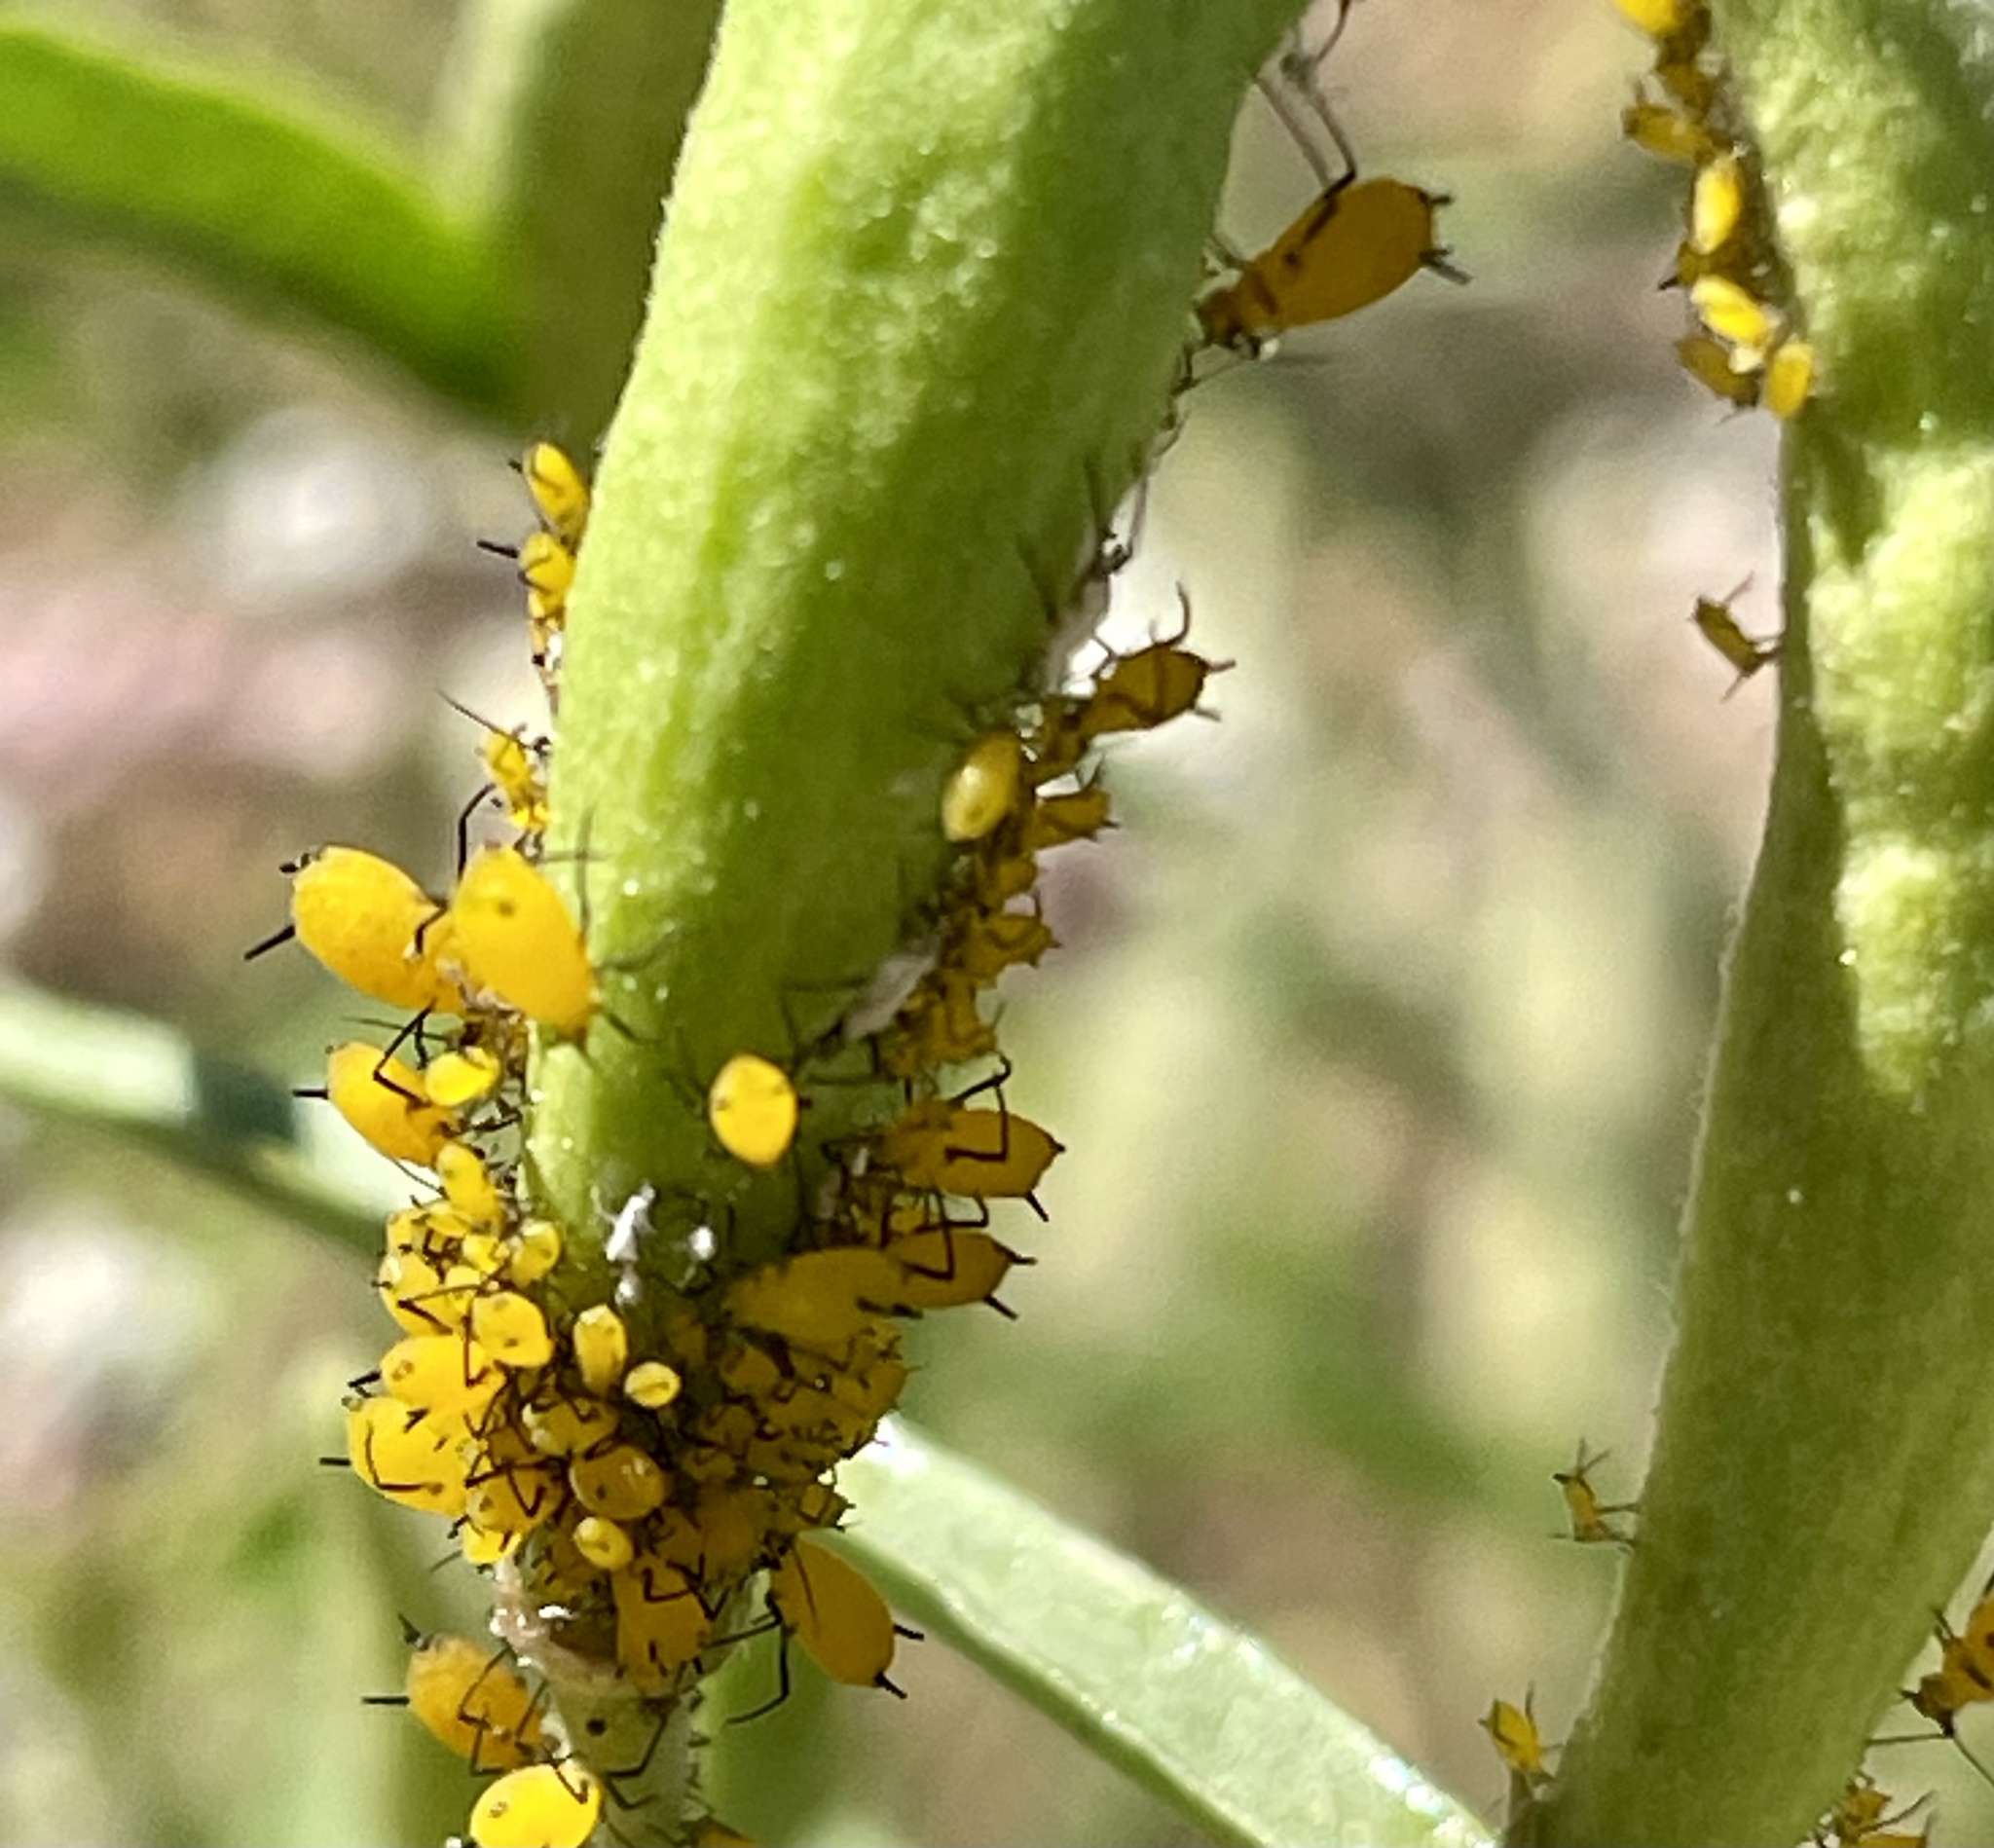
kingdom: Animalia
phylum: Arthropoda
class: Insecta
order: Hemiptera
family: Aphididae
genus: Aphis
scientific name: Aphis nerii
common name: Oleander aphid
